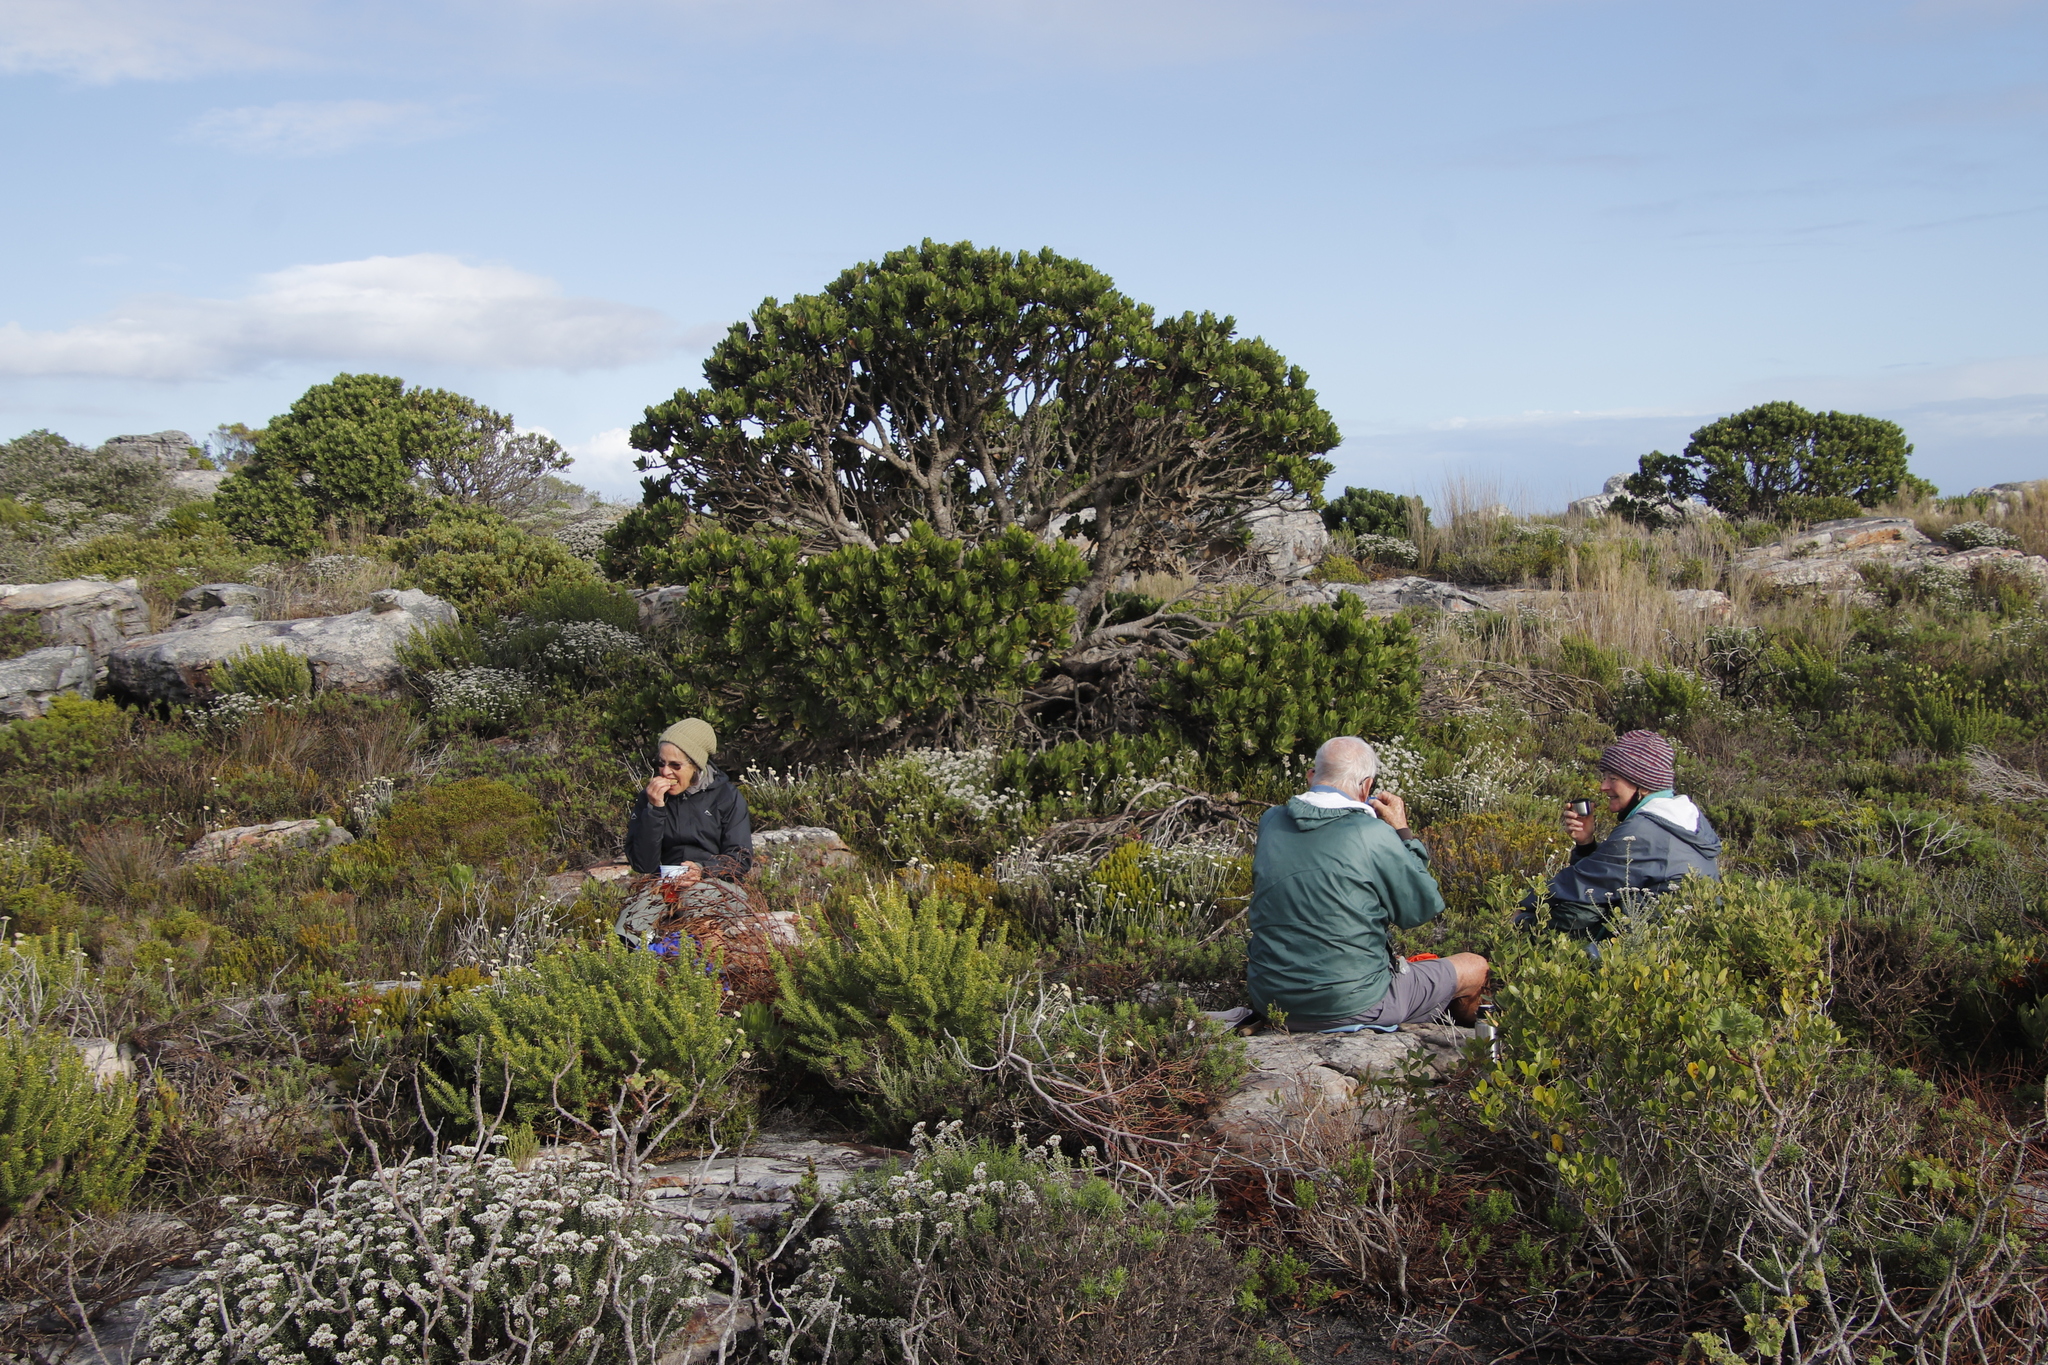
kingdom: Plantae
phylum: Tracheophyta
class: Magnoliopsida
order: Proteales
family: Proteaceae
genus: Leucospermum
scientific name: Leucospermum conocarpodendron
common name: Tree pincushion
